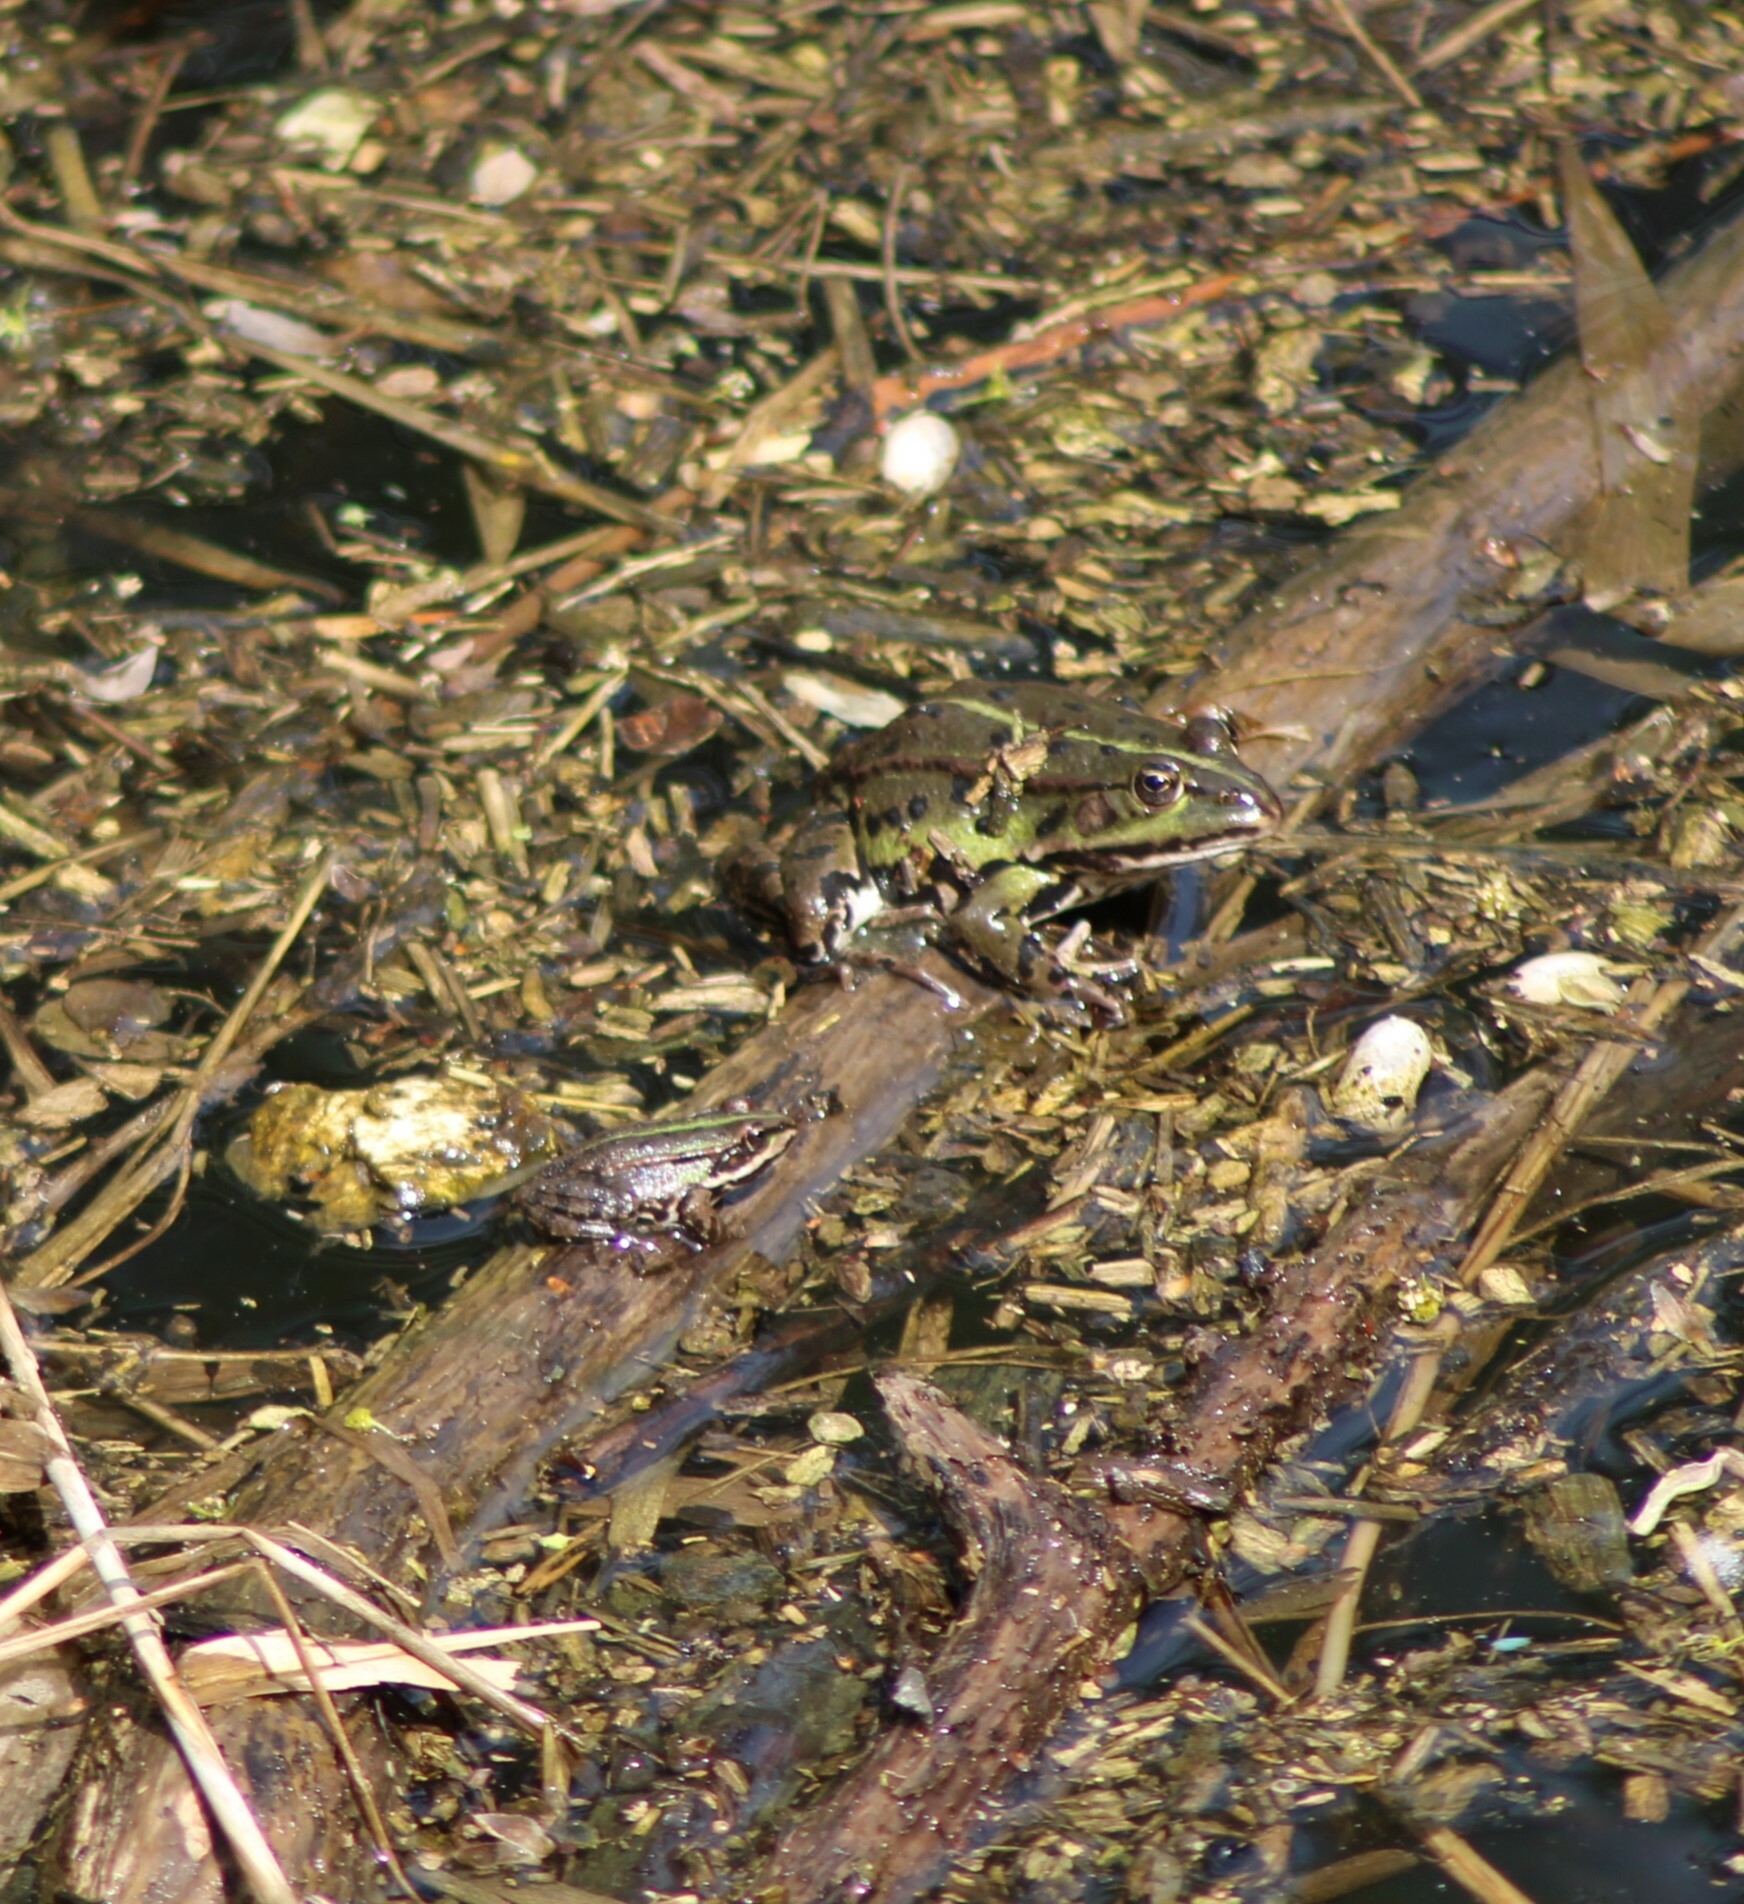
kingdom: Animalia
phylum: Chordata
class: Amphibia
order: Anura
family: Ranidae
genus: Pelophylax
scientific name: Pelophylax
